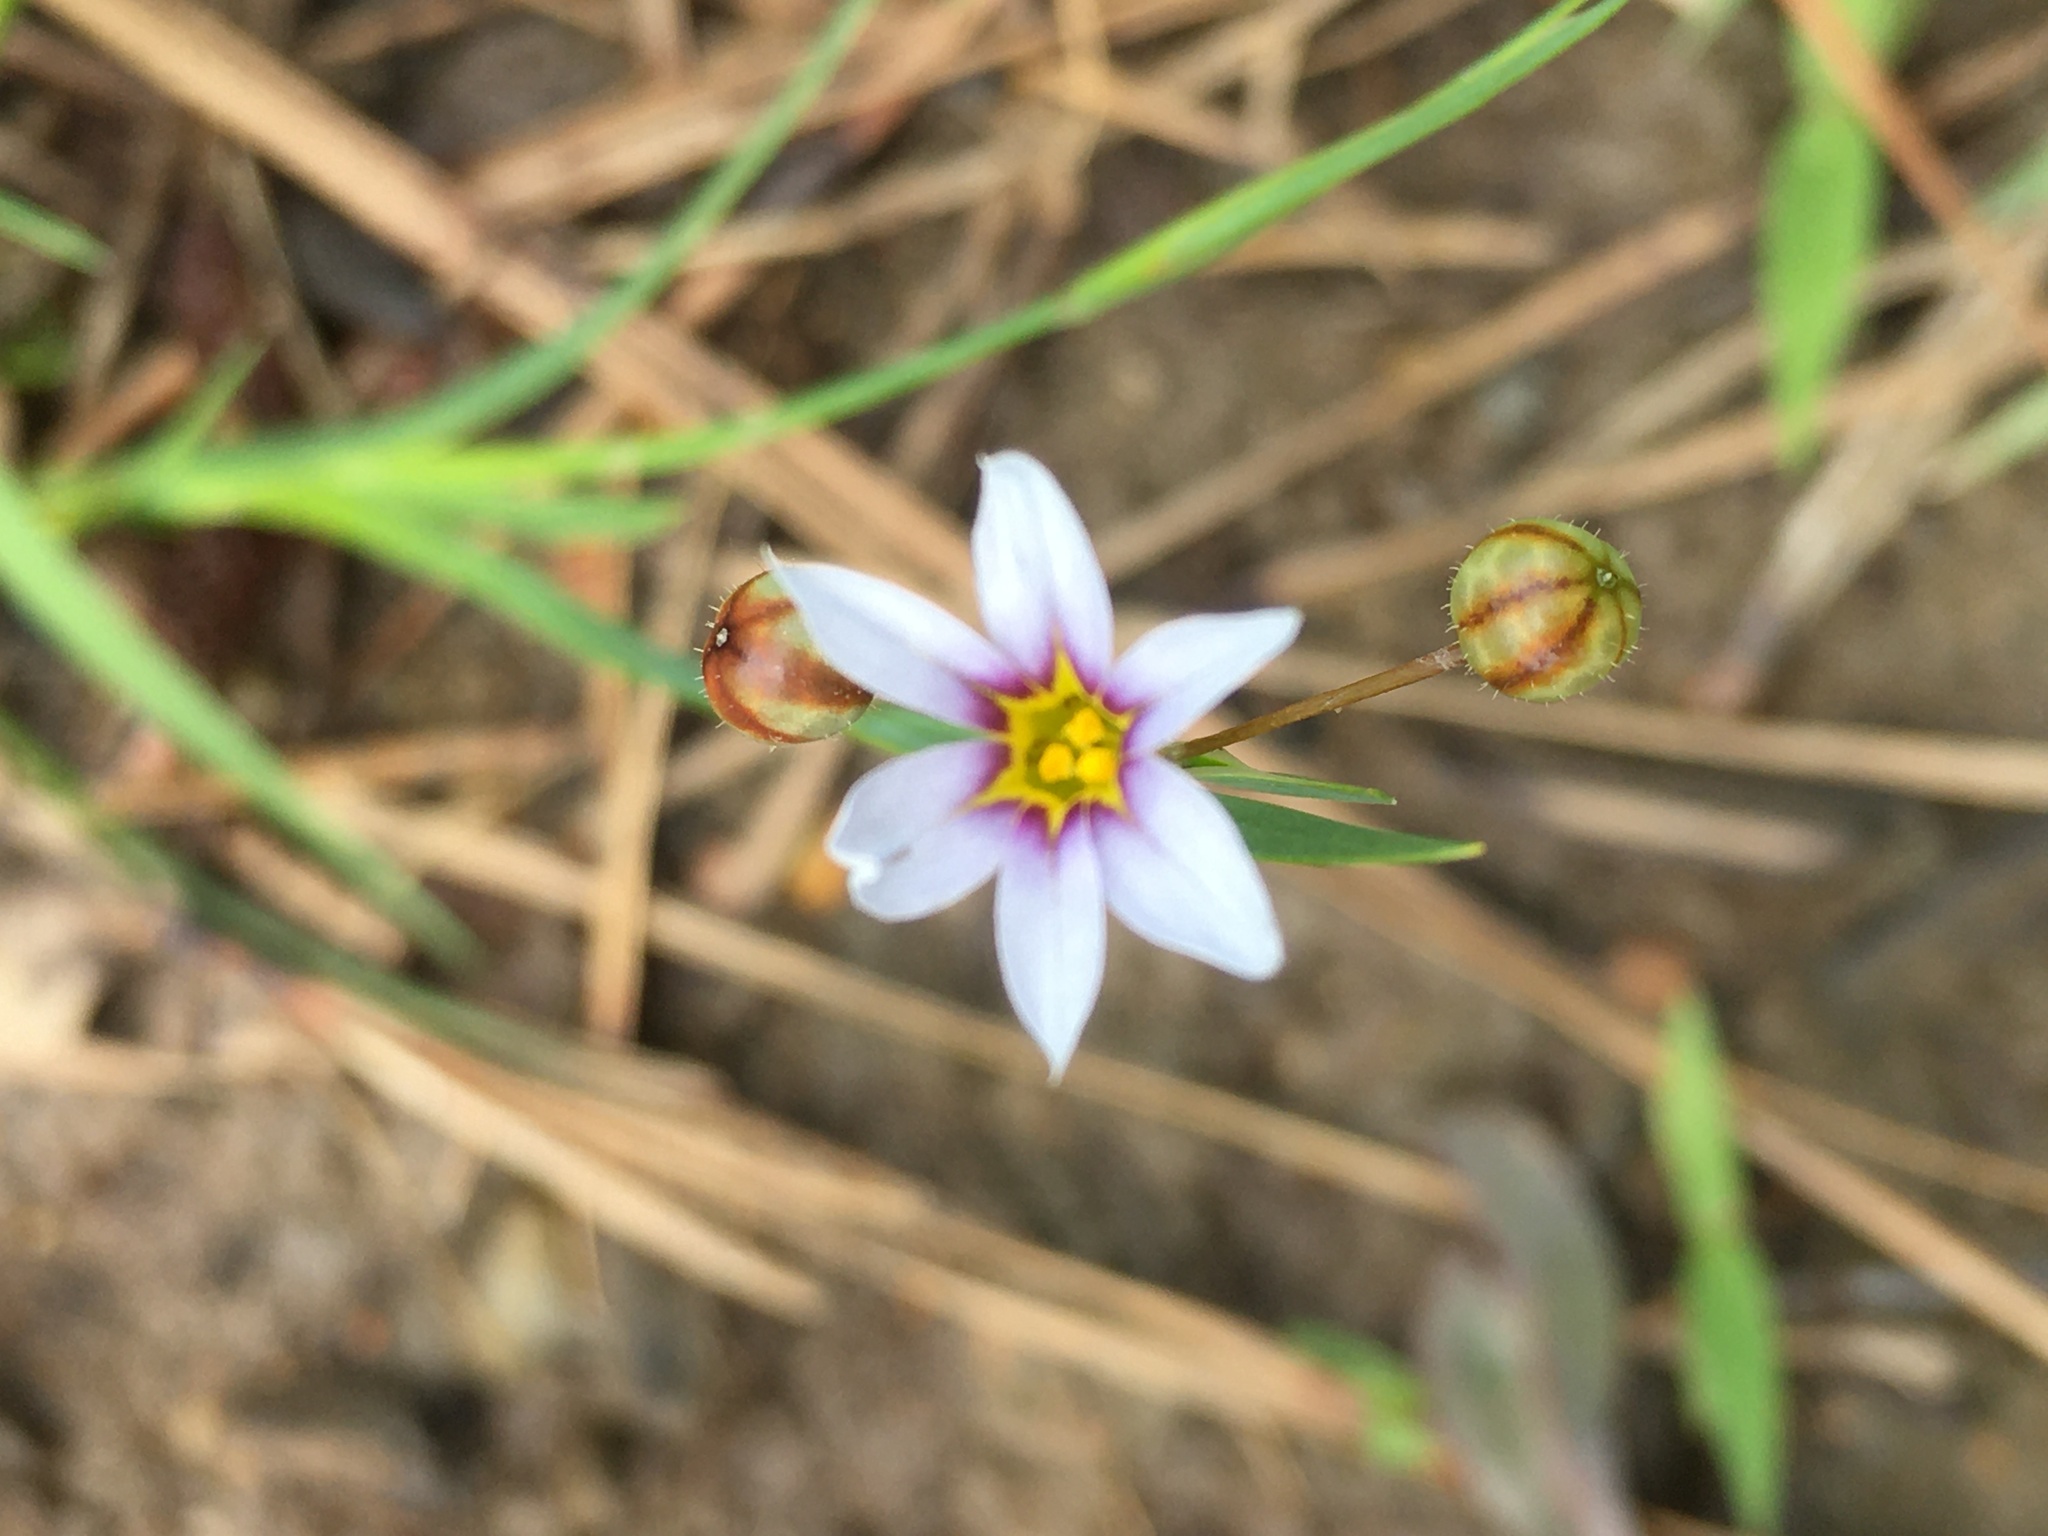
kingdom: Plantae
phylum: Tracheophyta
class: Liliopsida
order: Asparagales
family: Iridaceae
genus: Sisyrinchium
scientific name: Sisyrinchium micranthum
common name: Bermuda pigroot
